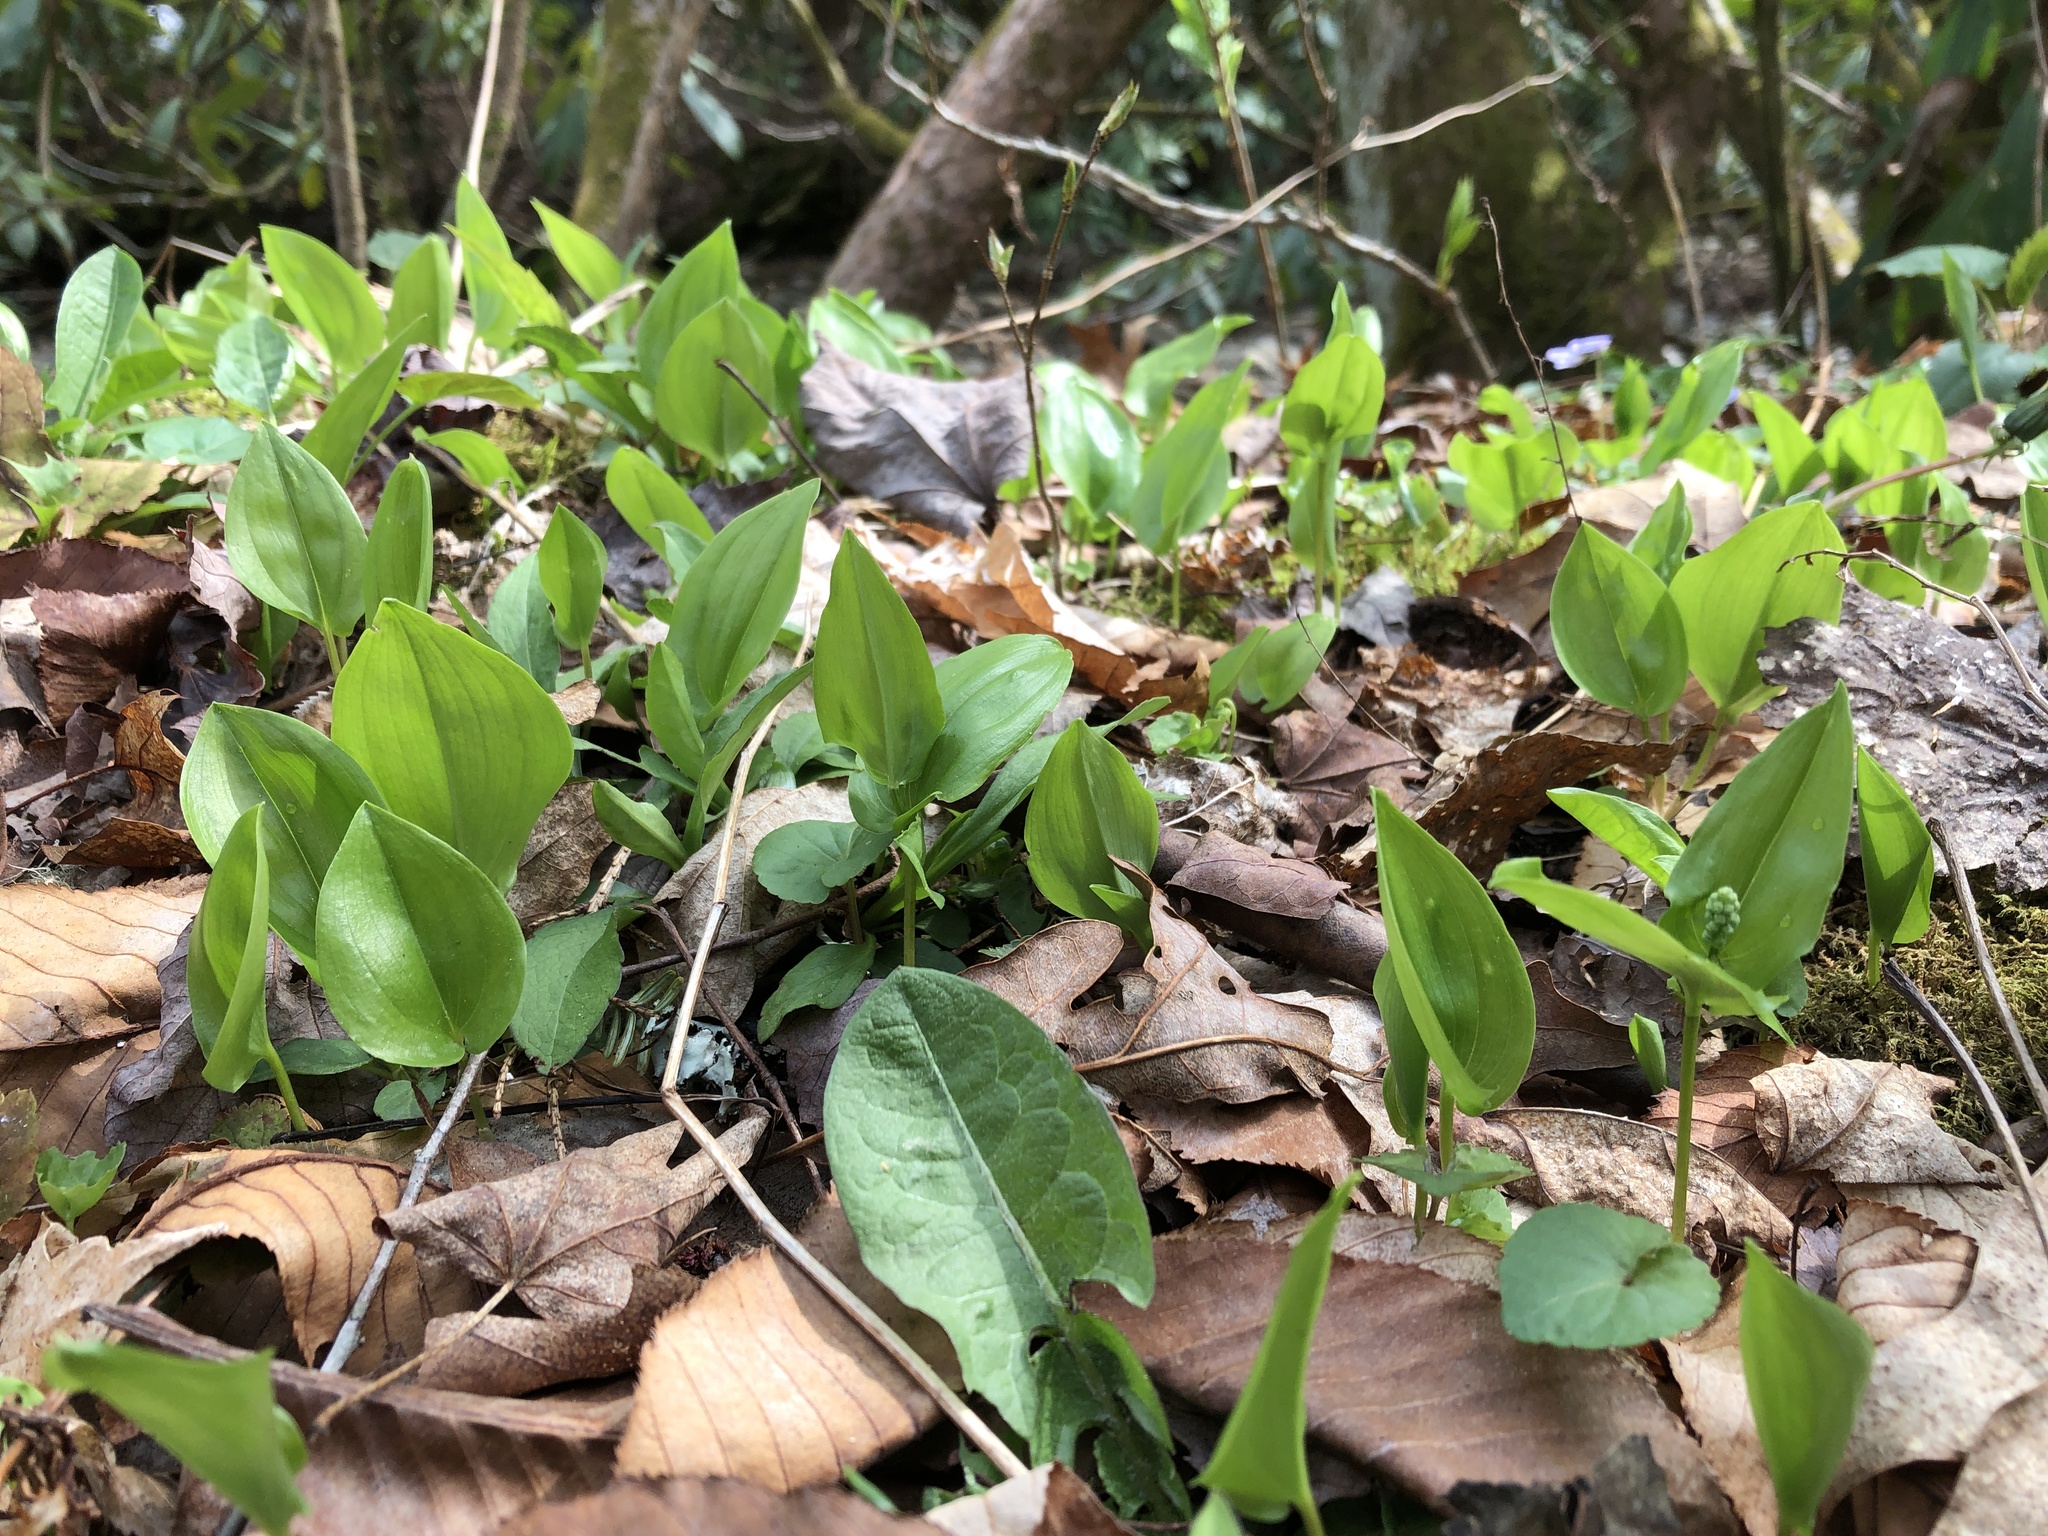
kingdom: Plantae
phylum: Tracheophyta
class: Liliopsida
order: Asparagales
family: Asparagaceae
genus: Maianthemum
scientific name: Maianthemum canadense
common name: False lily-of-the-valley
